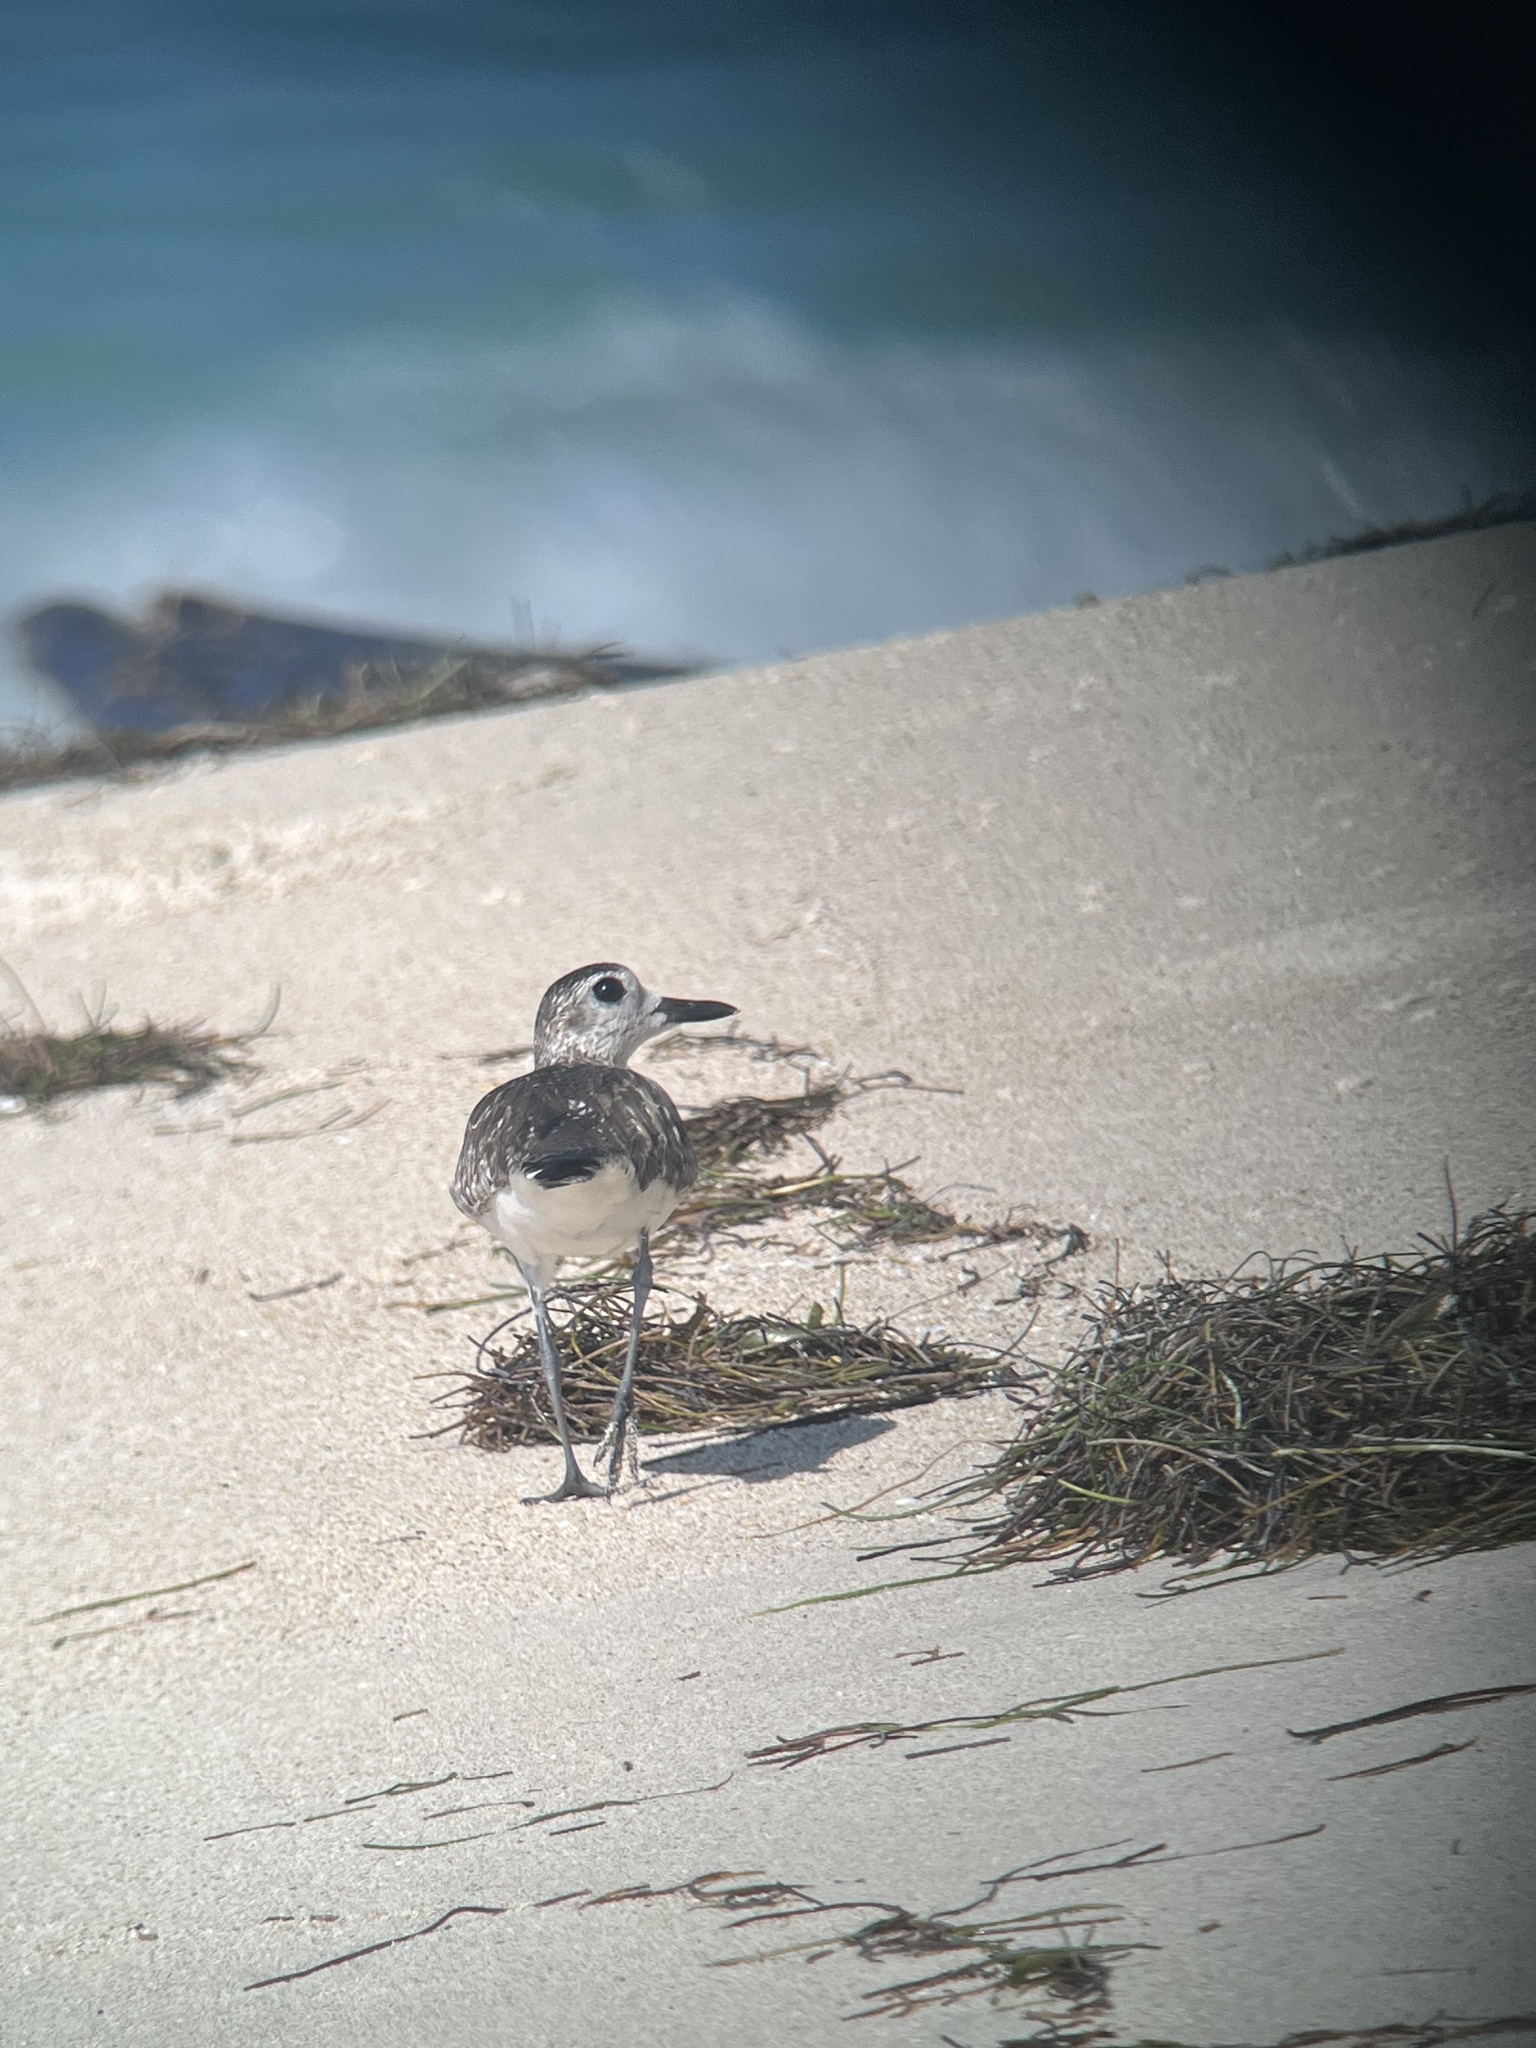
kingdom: Animalia
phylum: Chordata
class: Aves
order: Charadriiformes
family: Charadriidae
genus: Pluvialis
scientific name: Pluvialis squatarola
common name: Grey plover
